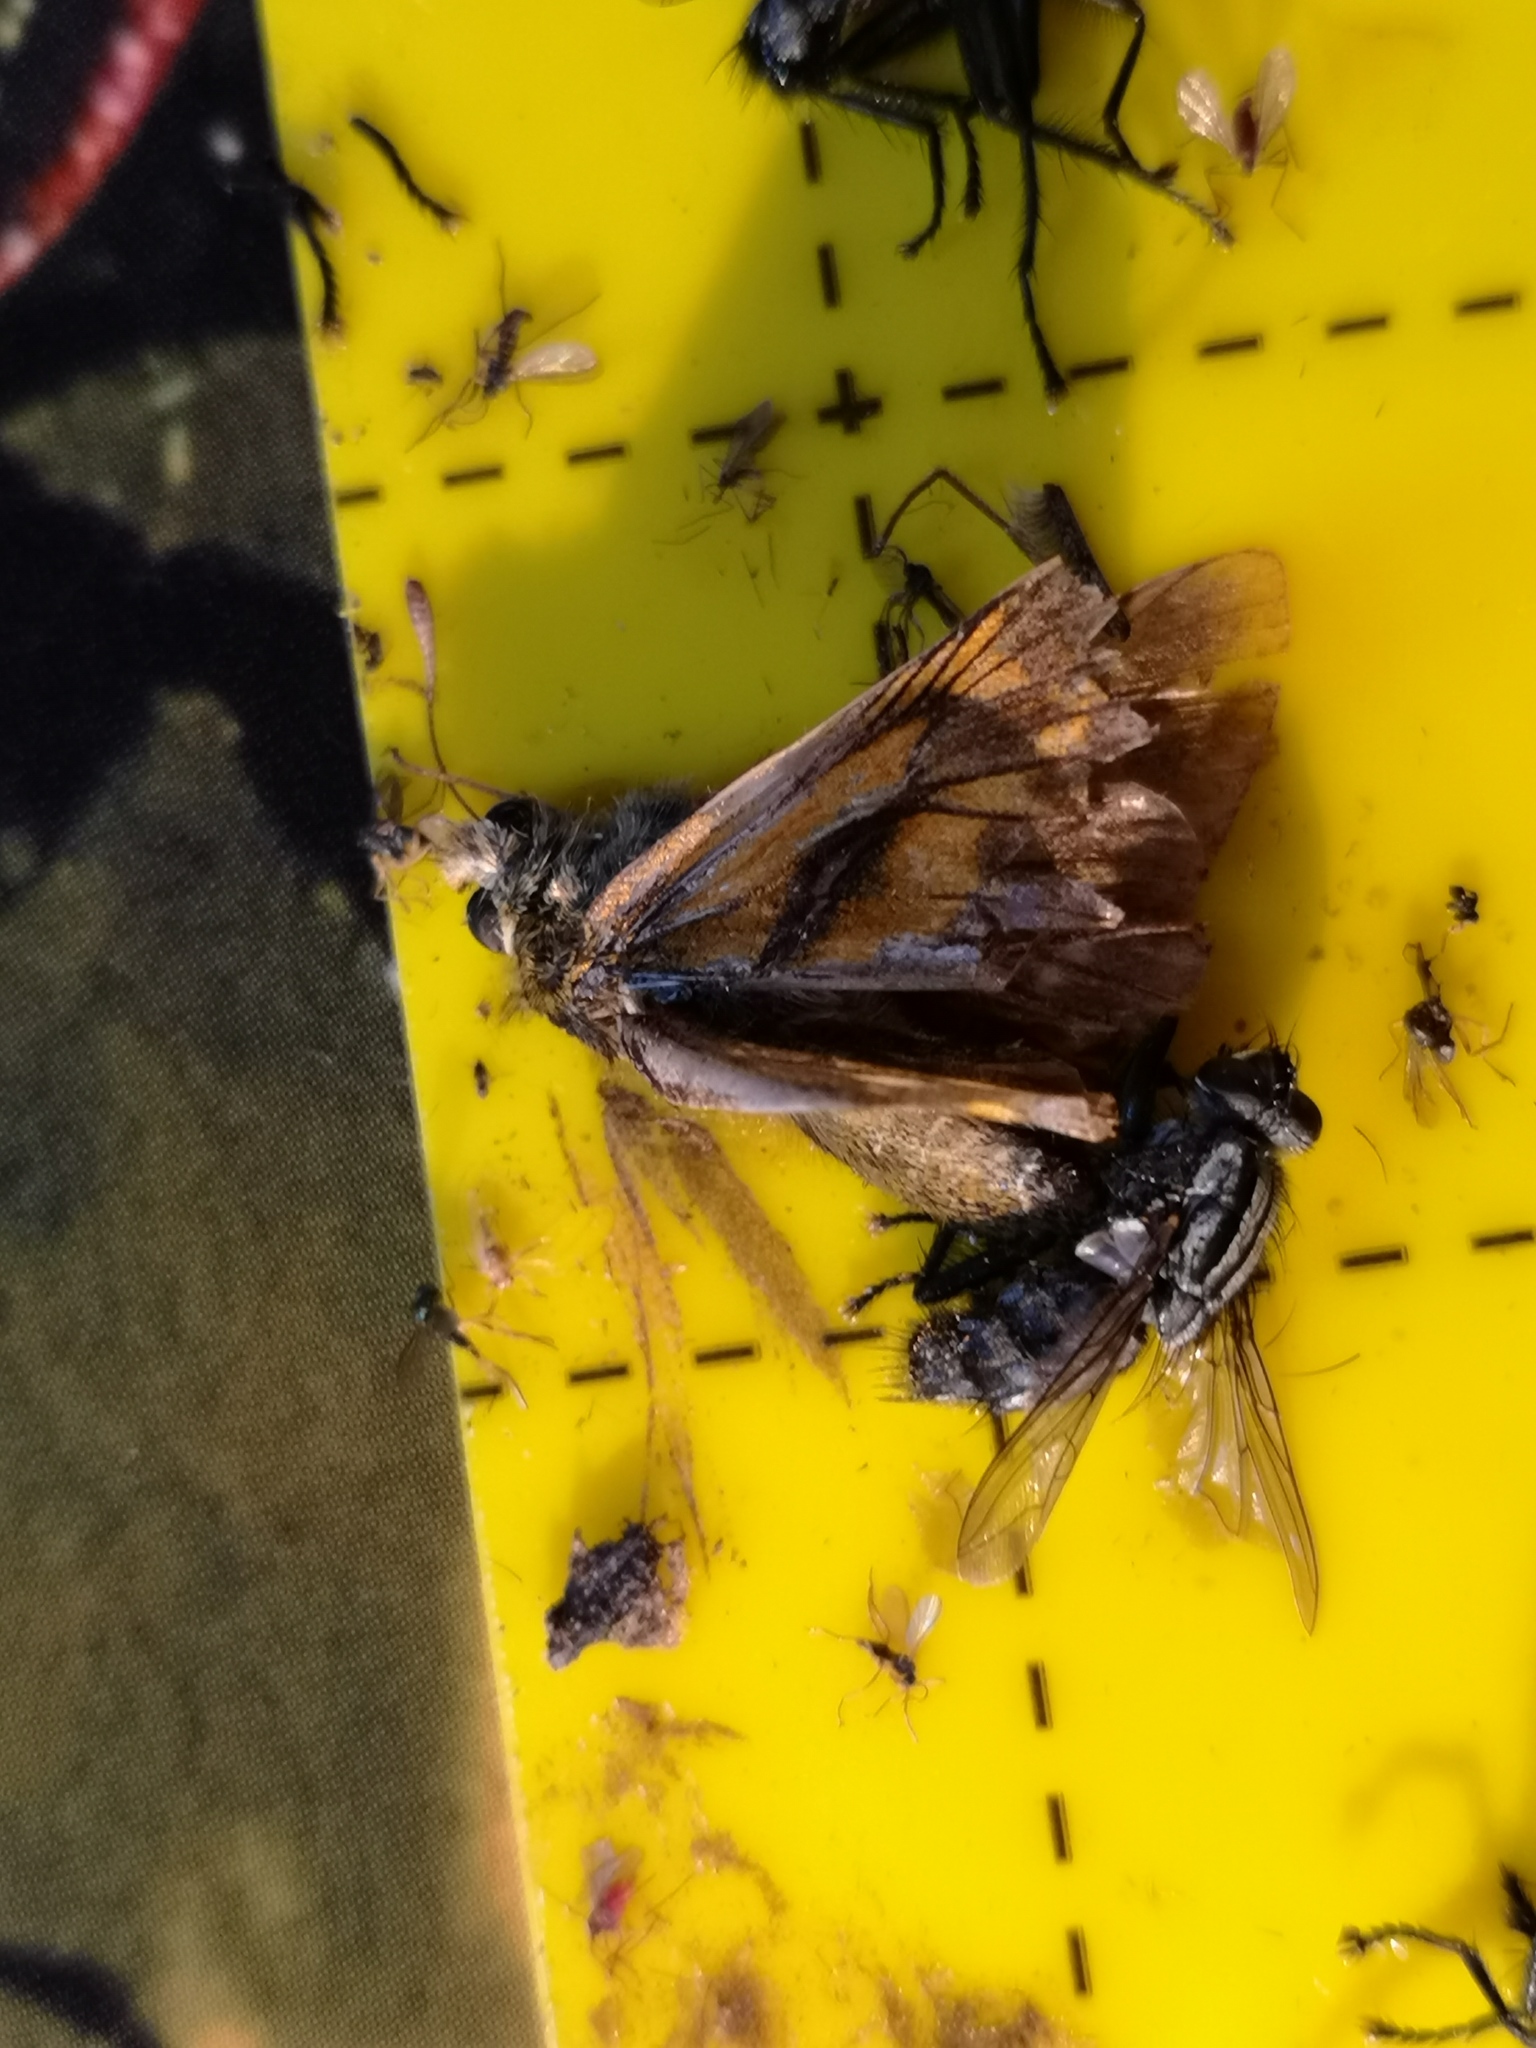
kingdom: Animalia
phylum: Arthropoda
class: Insecta
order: Lepidoptera
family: Hesperiidae
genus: Ochlodes
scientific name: Ochlodes venata
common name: Large skipper
